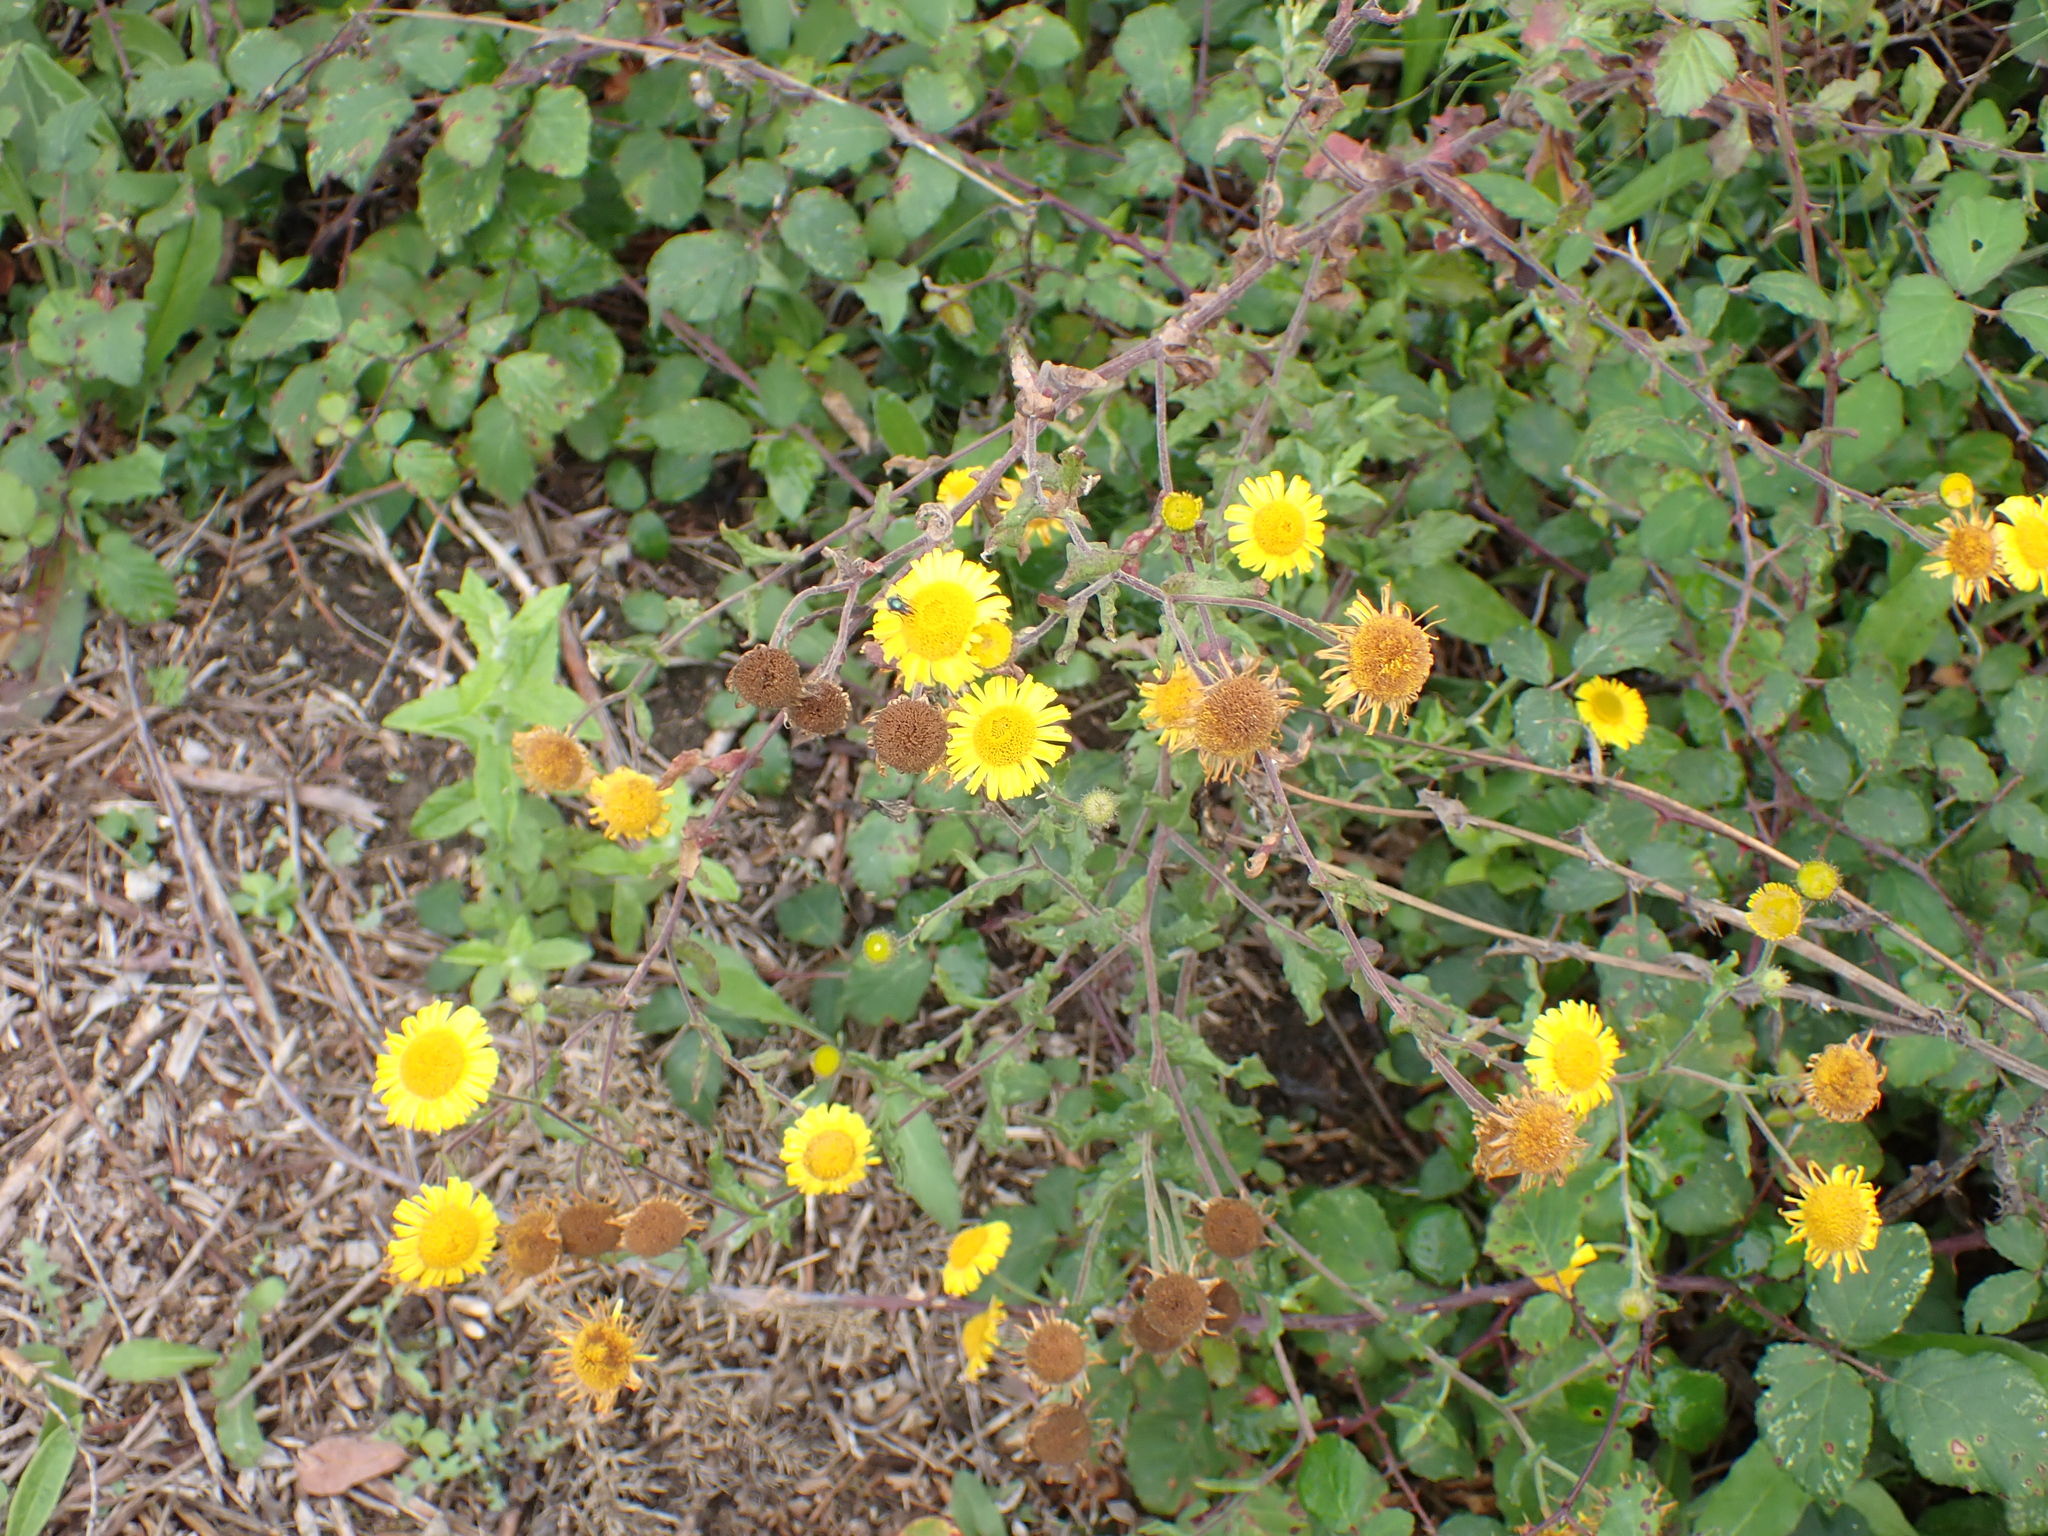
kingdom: Plantae
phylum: Tracheophyta
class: Magnoliopsida
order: Asterales
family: Asteraceae
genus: Pulicaria
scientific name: Pulicaria dysenterica
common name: Common fleabane
